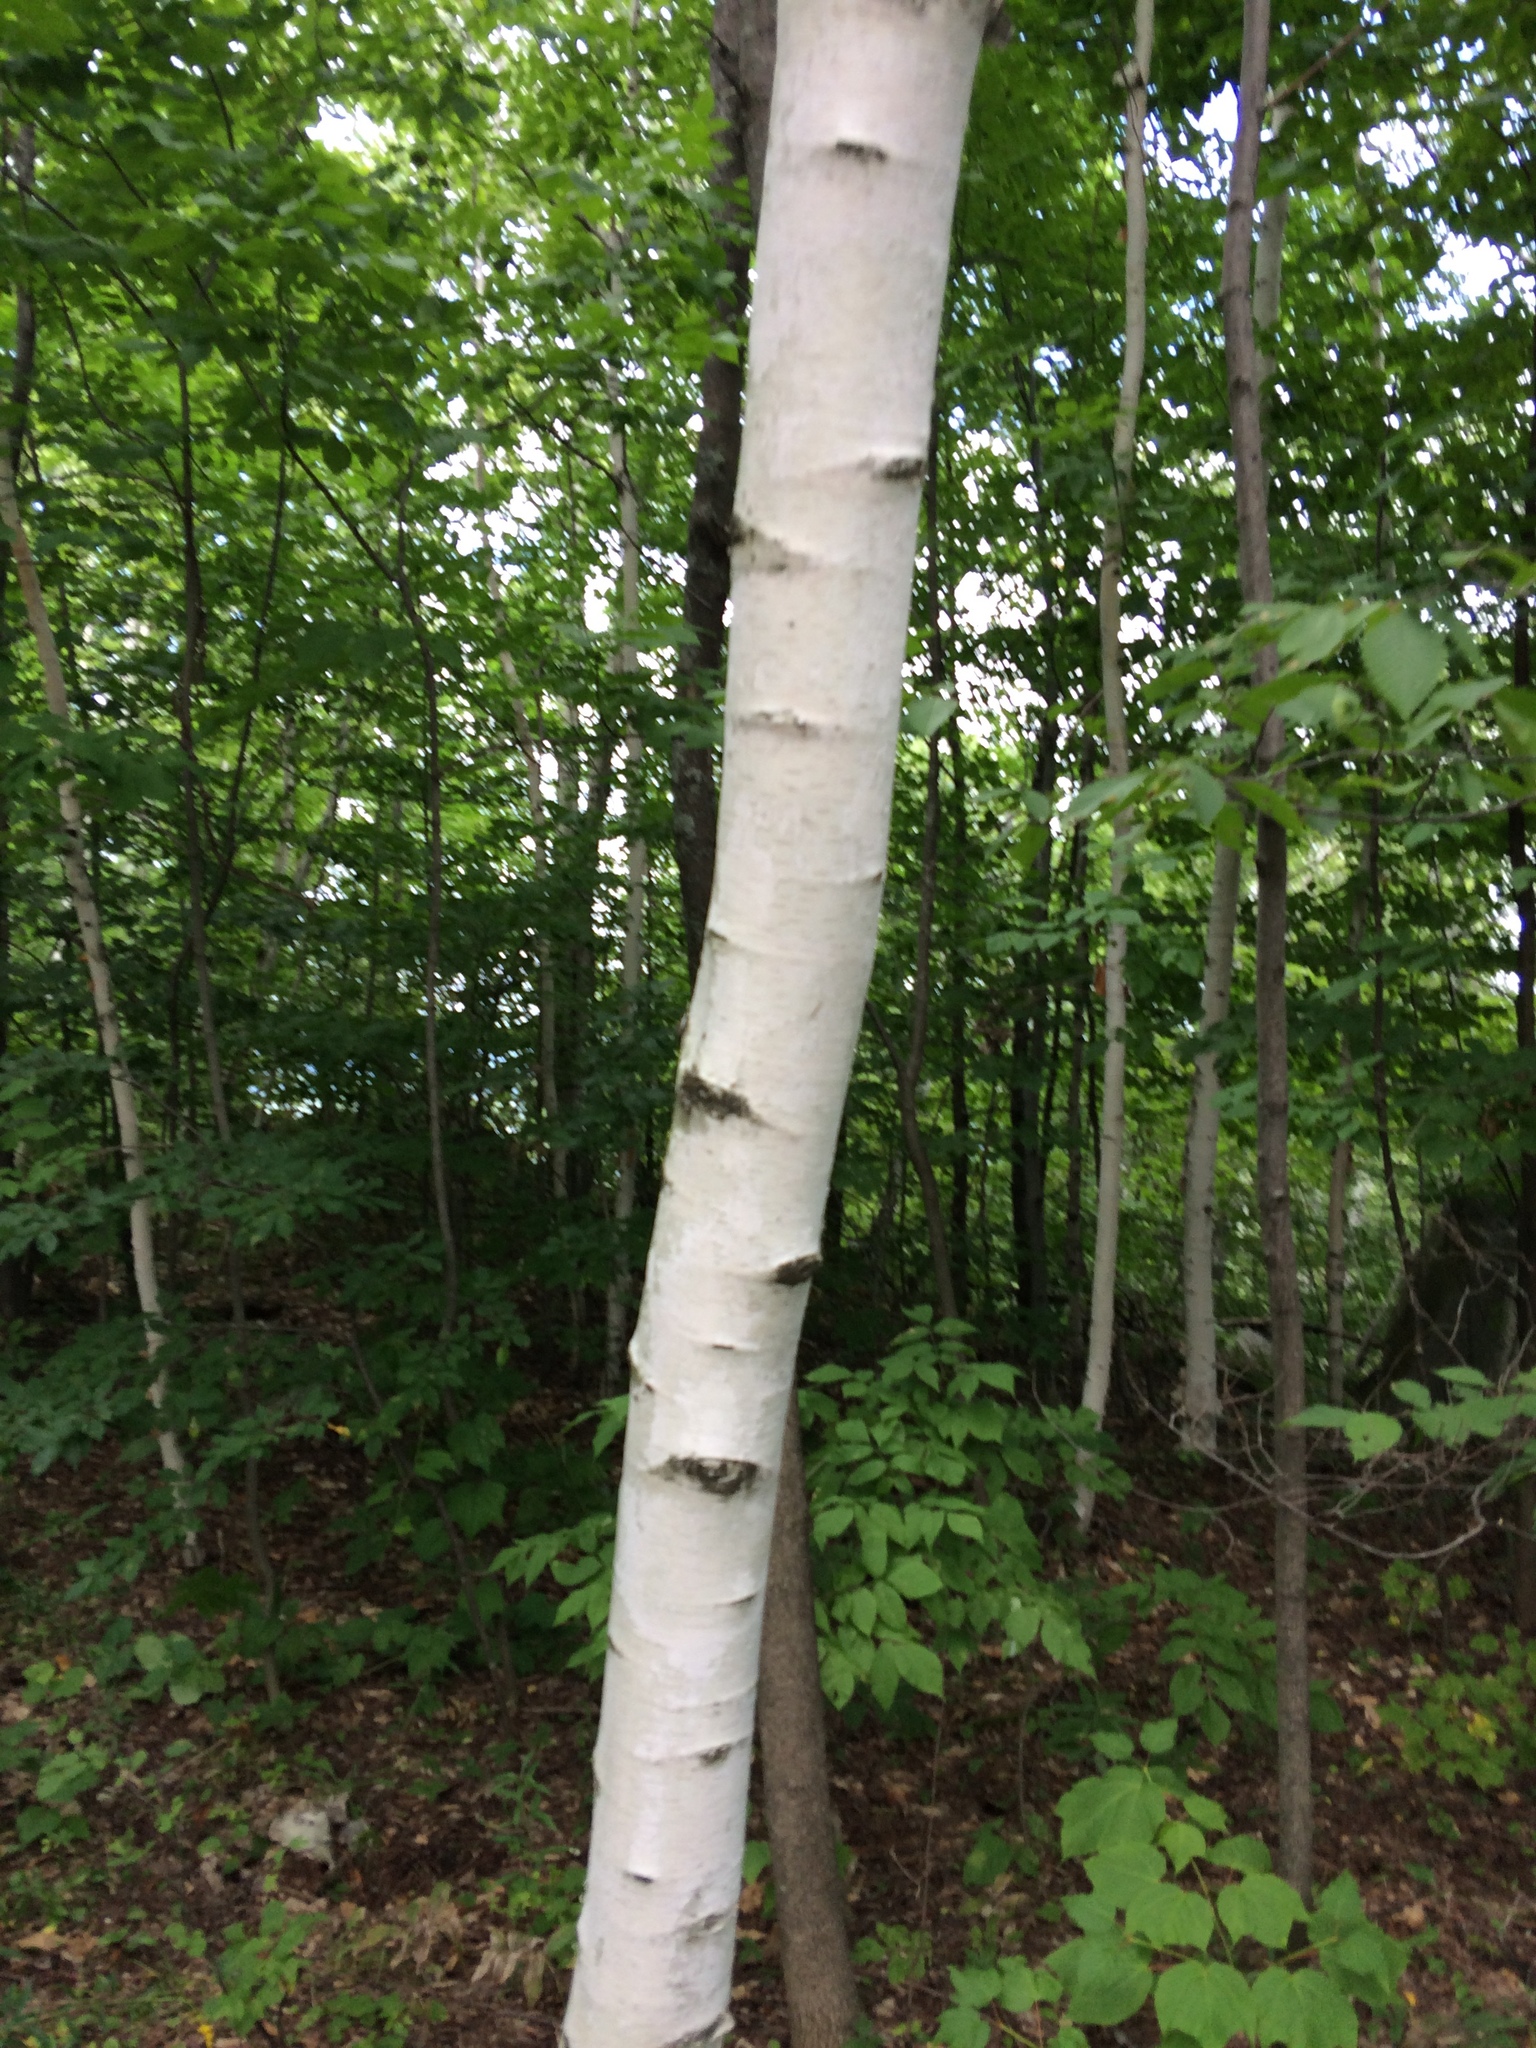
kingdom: Plantae
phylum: Tracheophyta
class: Magnoliopsida
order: Fagales
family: Betulaceae
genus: Betula
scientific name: Betula papyrifera
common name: Paper birch
